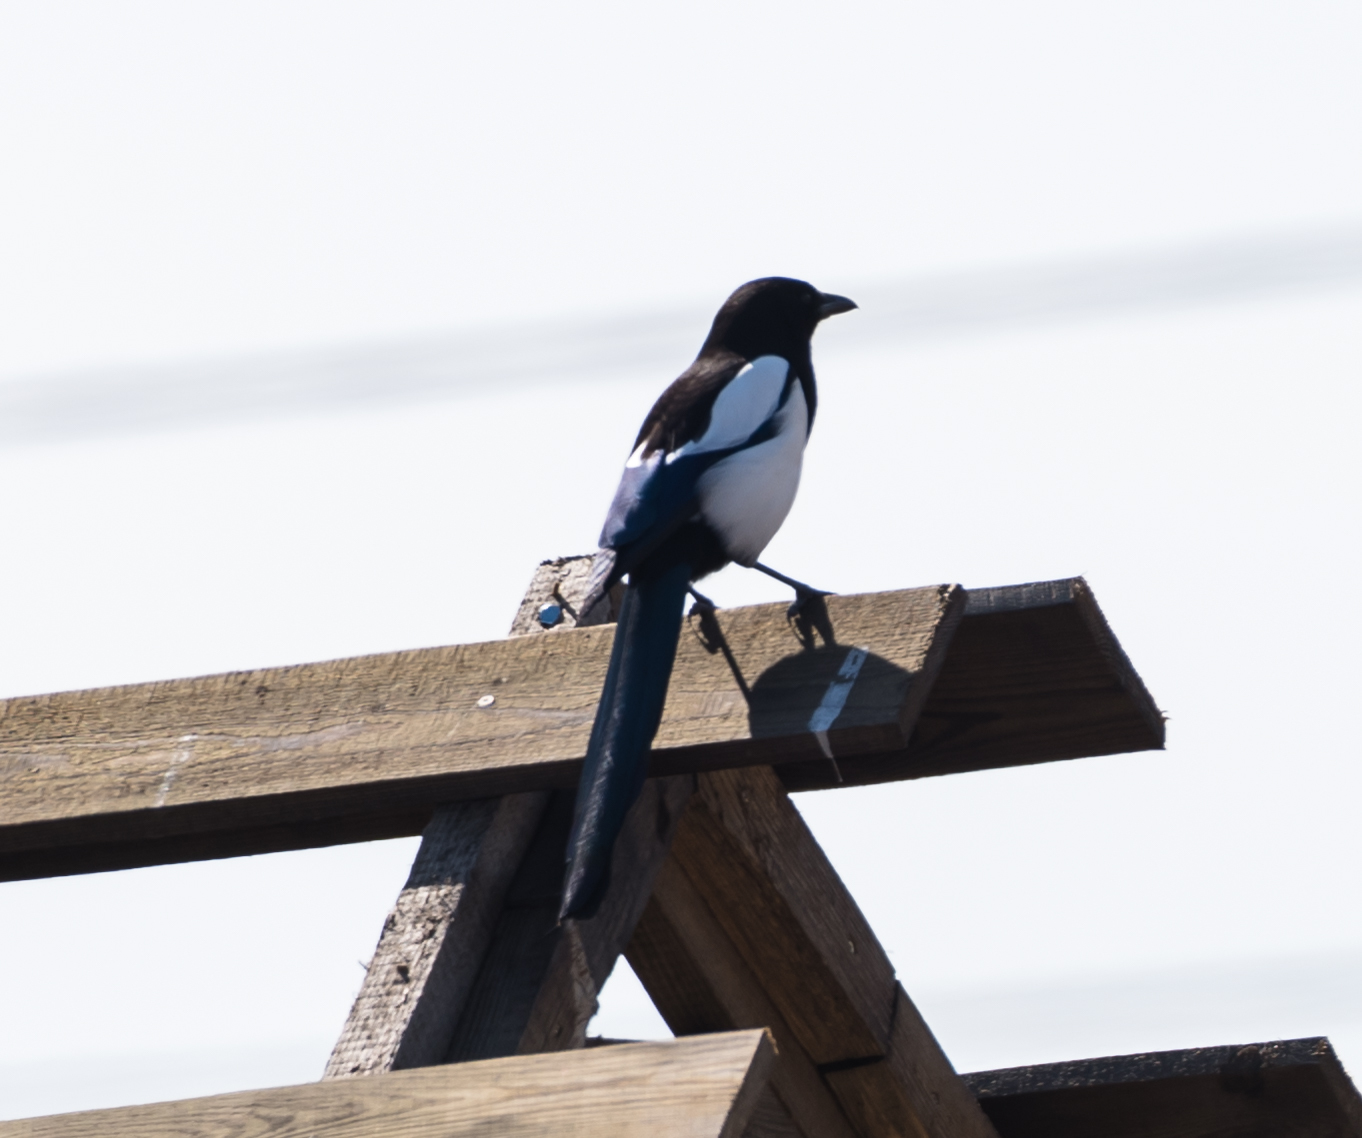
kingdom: Animalia
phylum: Chordata
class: Aves
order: Passeriformes
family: Corvidae
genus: Pica
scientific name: Pica pica
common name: Eurasian magpie
